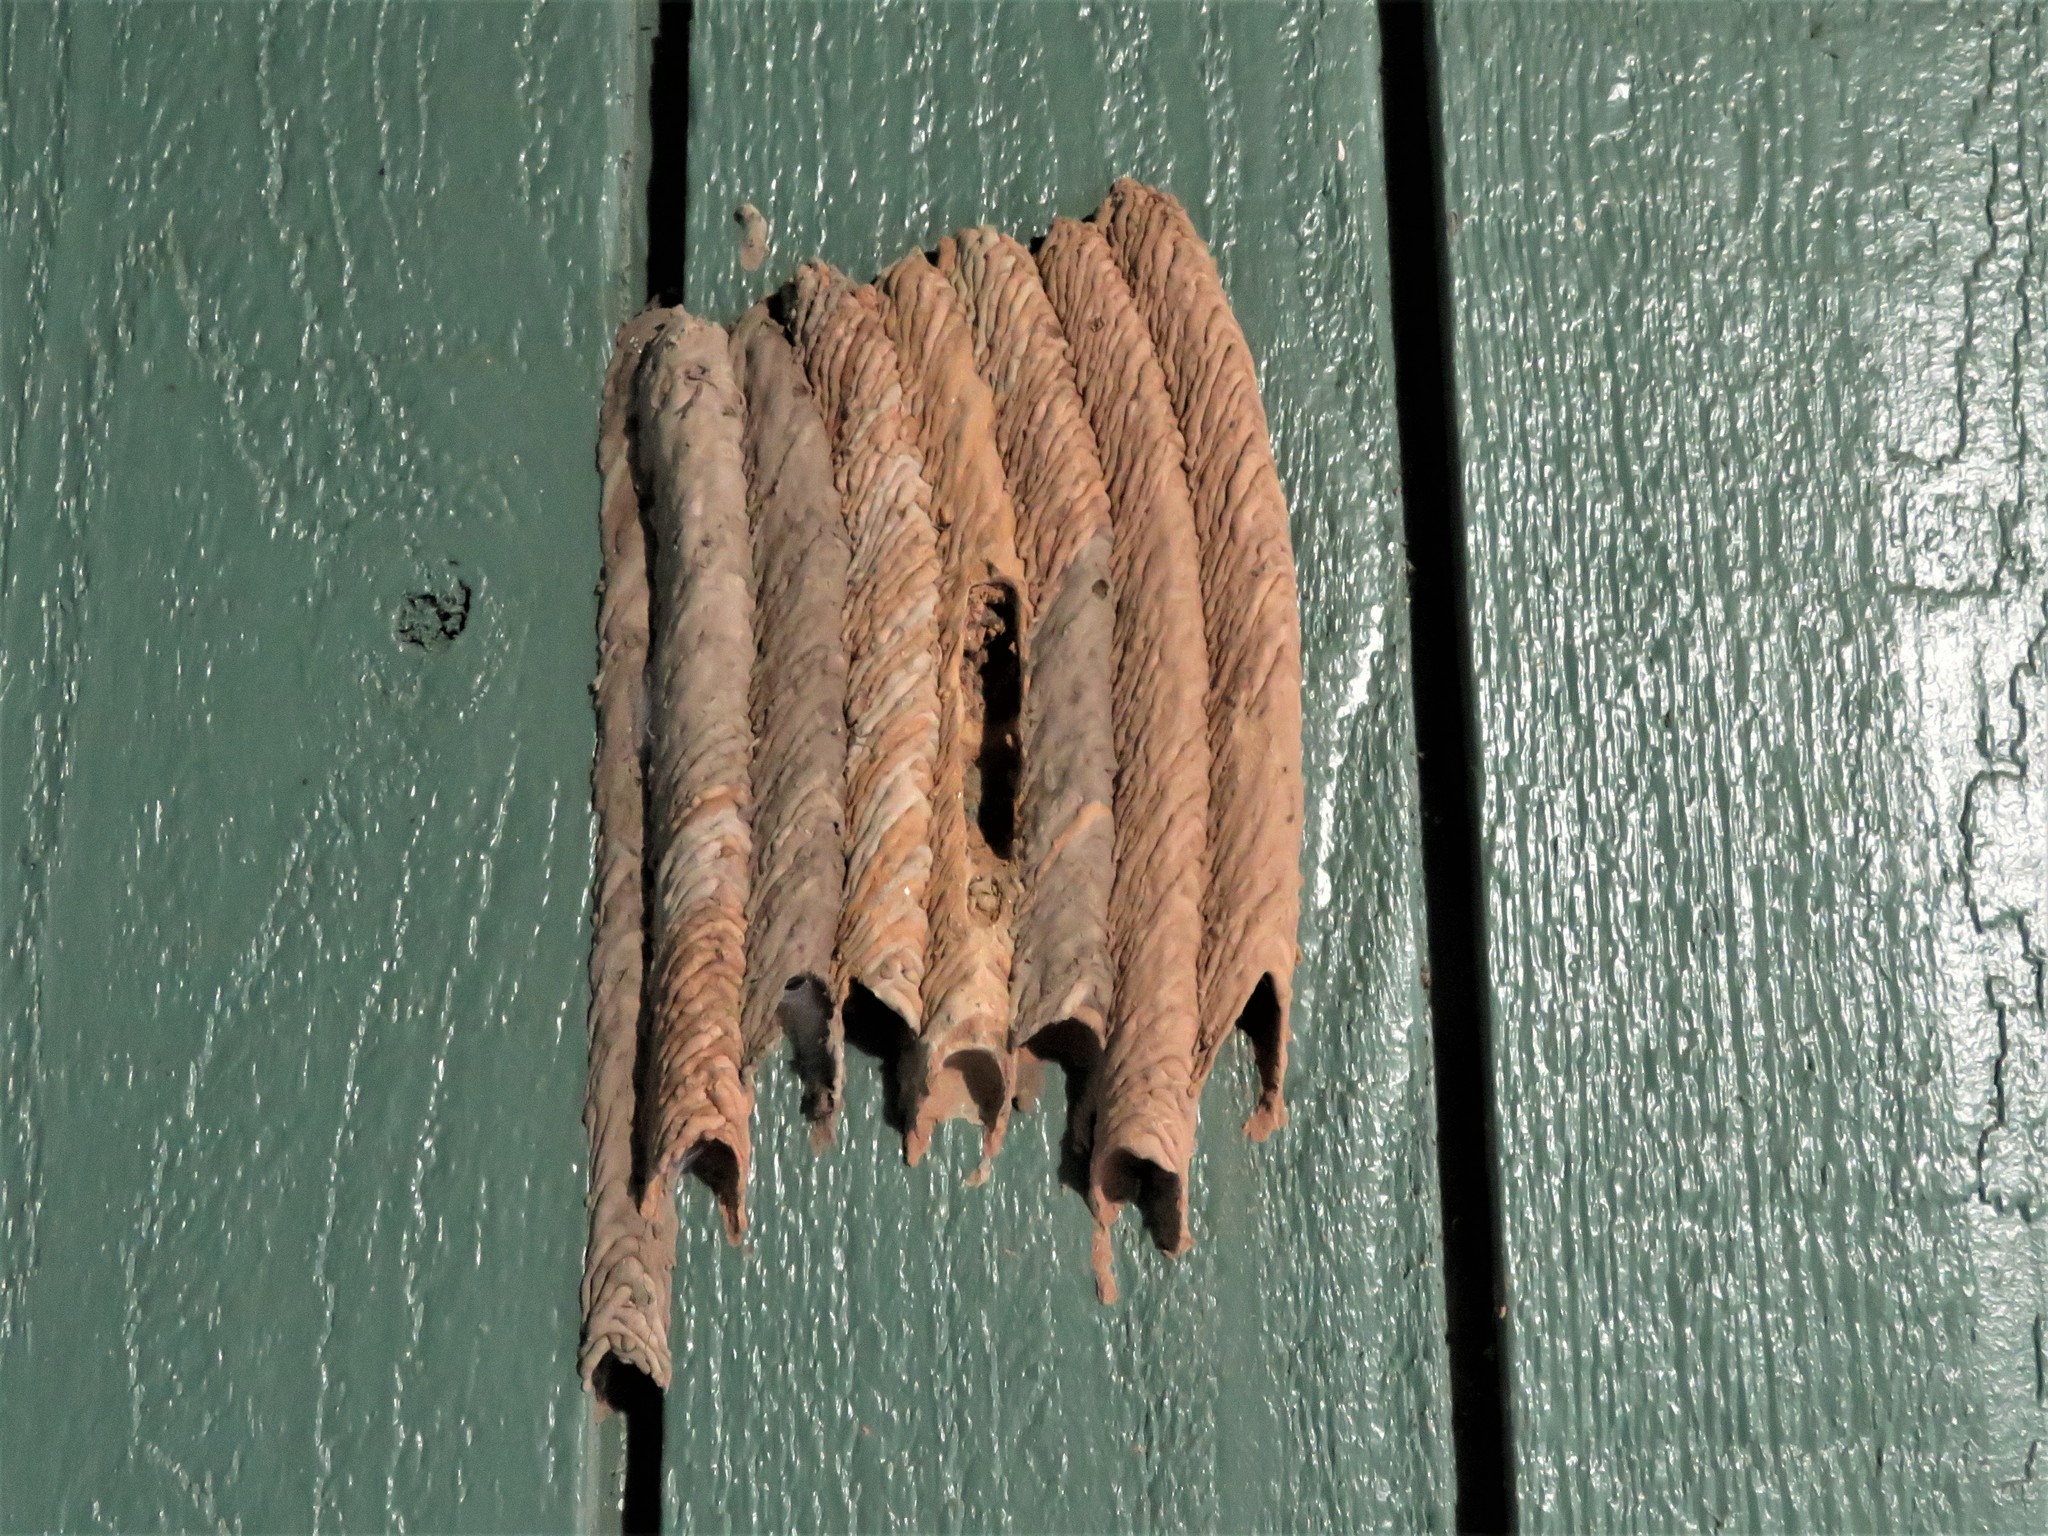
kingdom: Animalia
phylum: Arthropoda
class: Insecta
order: Hymenoptera
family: Crabronidae
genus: Trypoxylon
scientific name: Trypoxylon politum
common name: Organ-pipe mud-dauber wasp
